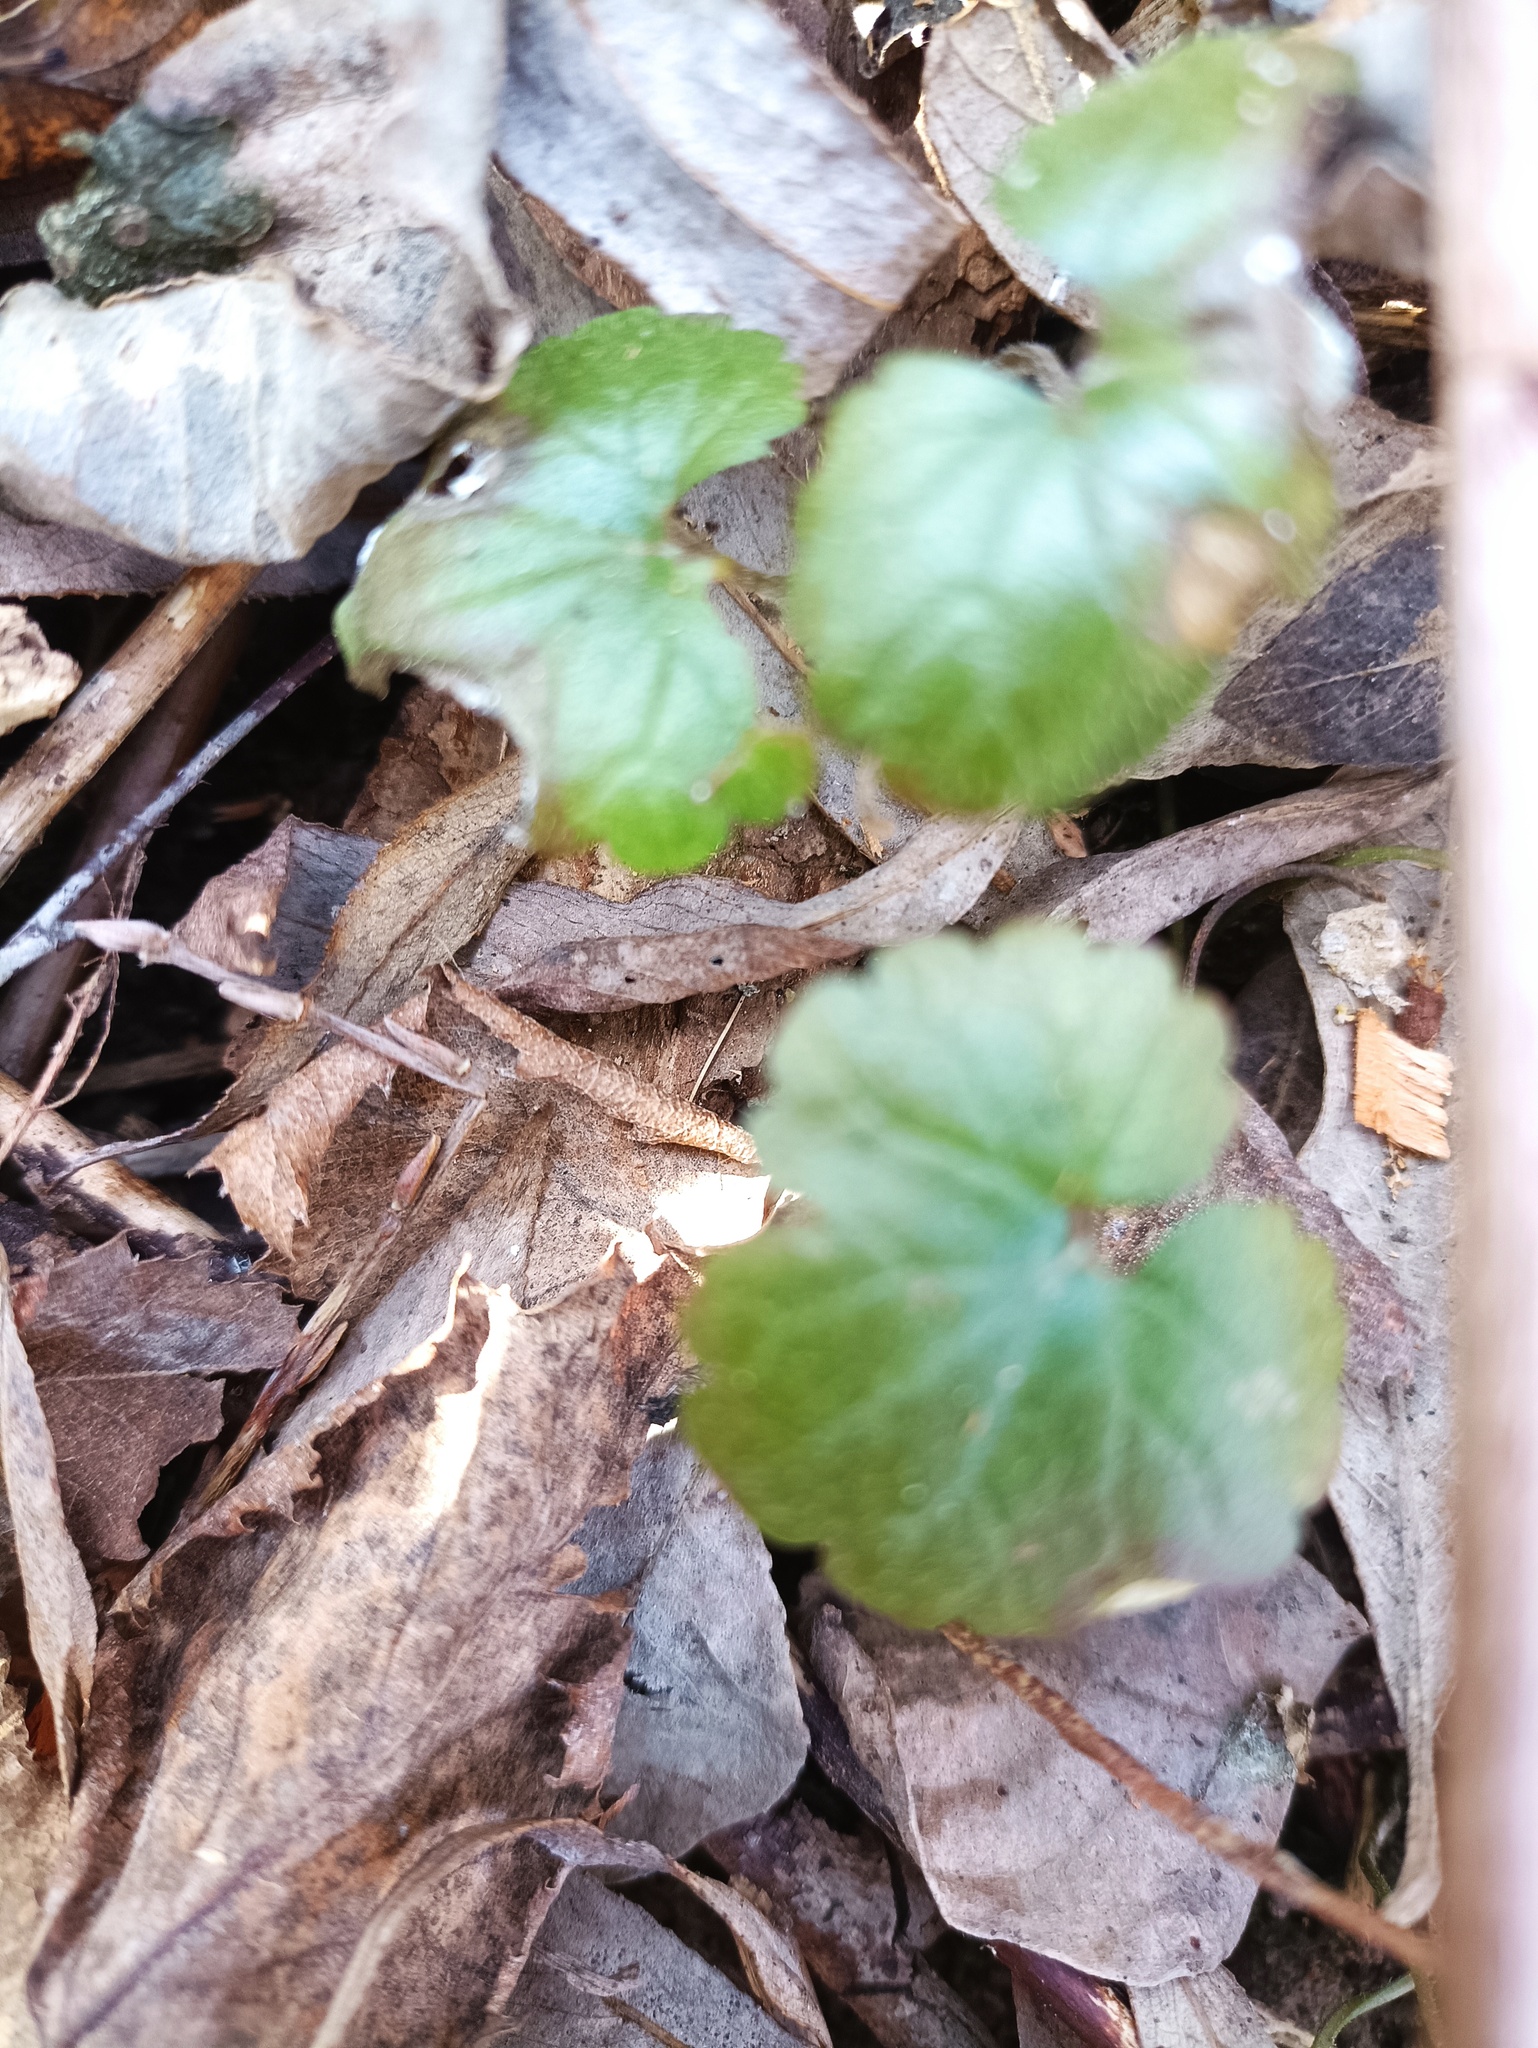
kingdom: Plantae
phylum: Tracheophyta
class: Magnoliopsida
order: Lamiales
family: Lamiaceae
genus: Glechoma
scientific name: Glechoma hederacea
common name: Ground ivy
